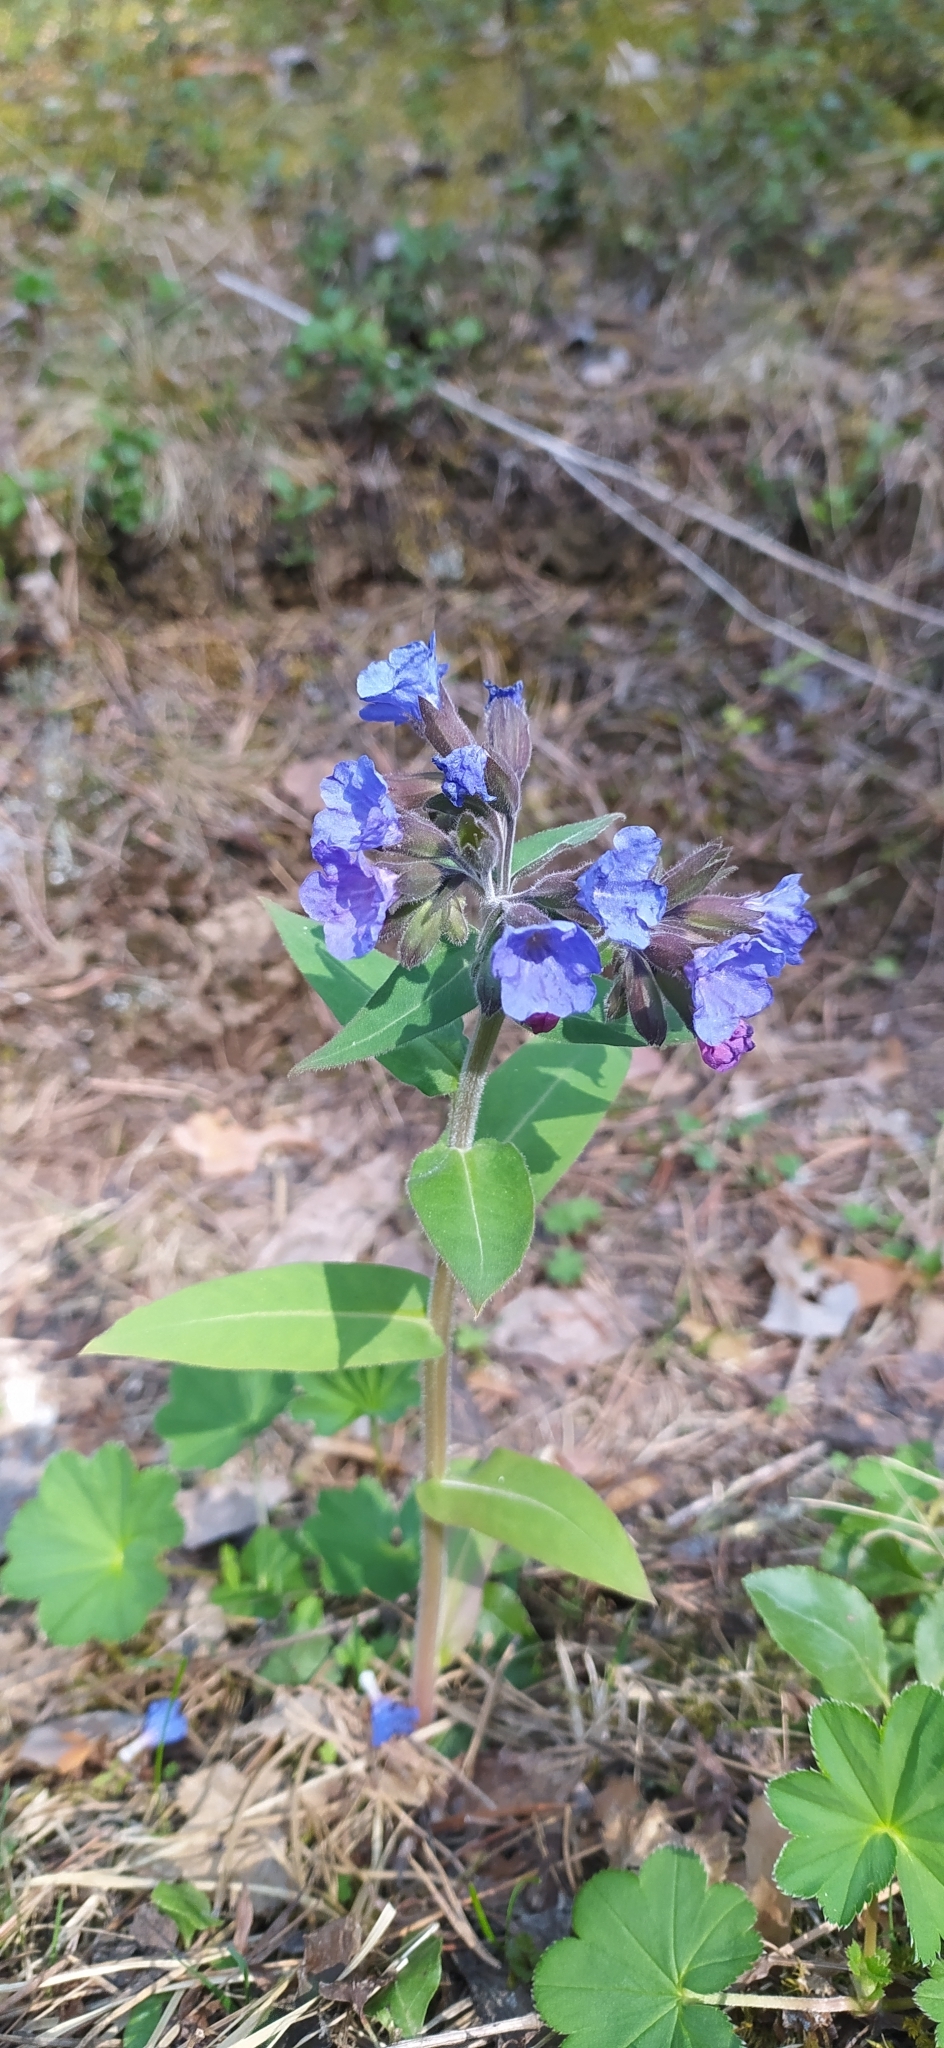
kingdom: Plantae
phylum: Tracheophyta
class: Magnoliopsida
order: Boraginales
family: Boraginaceae
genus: Pulmonaria
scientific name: Pulmonaria mollis
